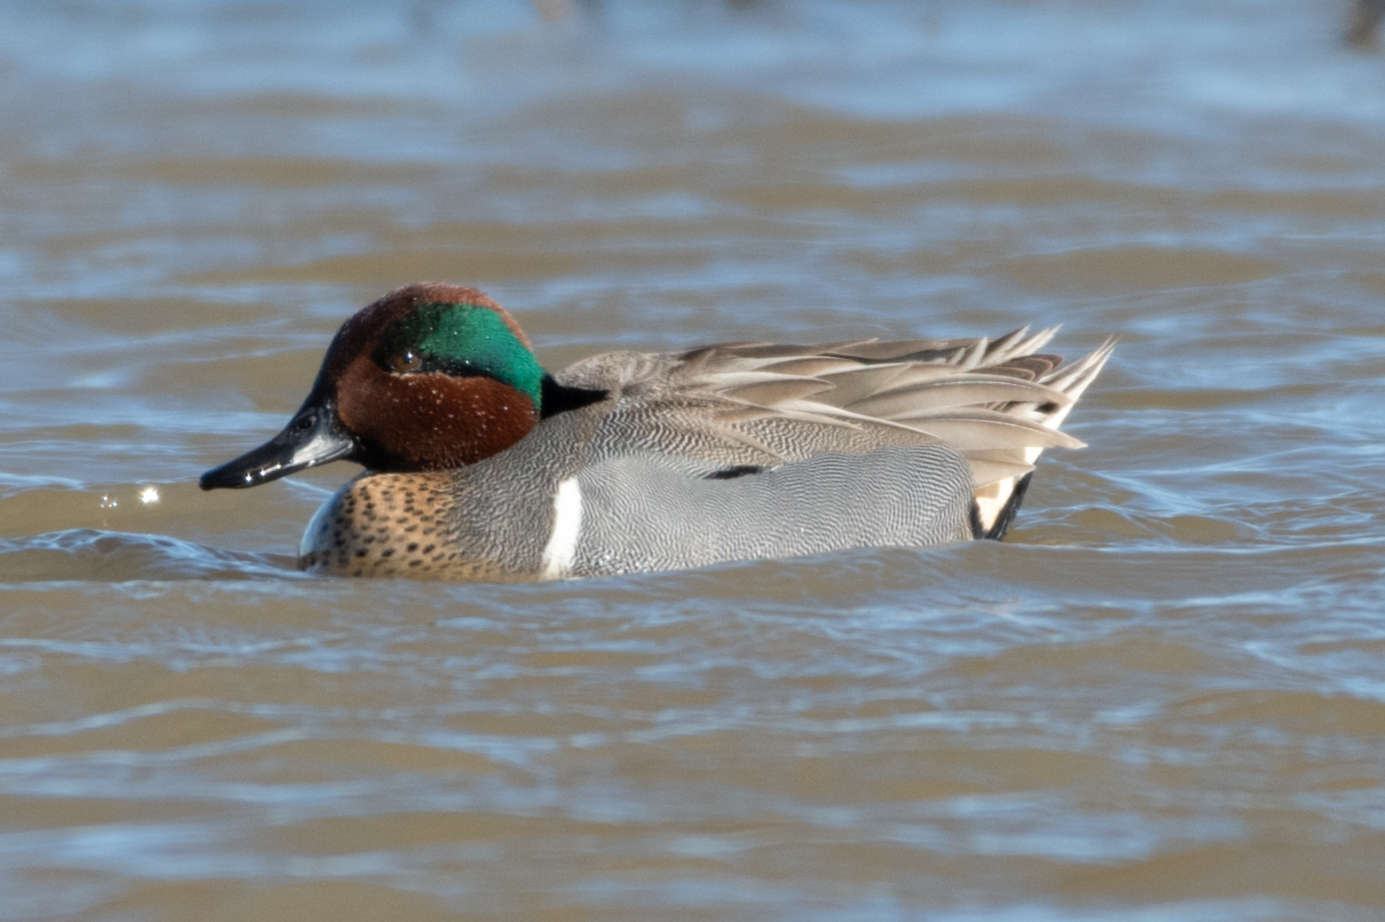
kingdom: Animalia
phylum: Chordata
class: Aves
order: Anseriformes
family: Anatidae
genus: Anas
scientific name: Anas crecca
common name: Eurasian teal
